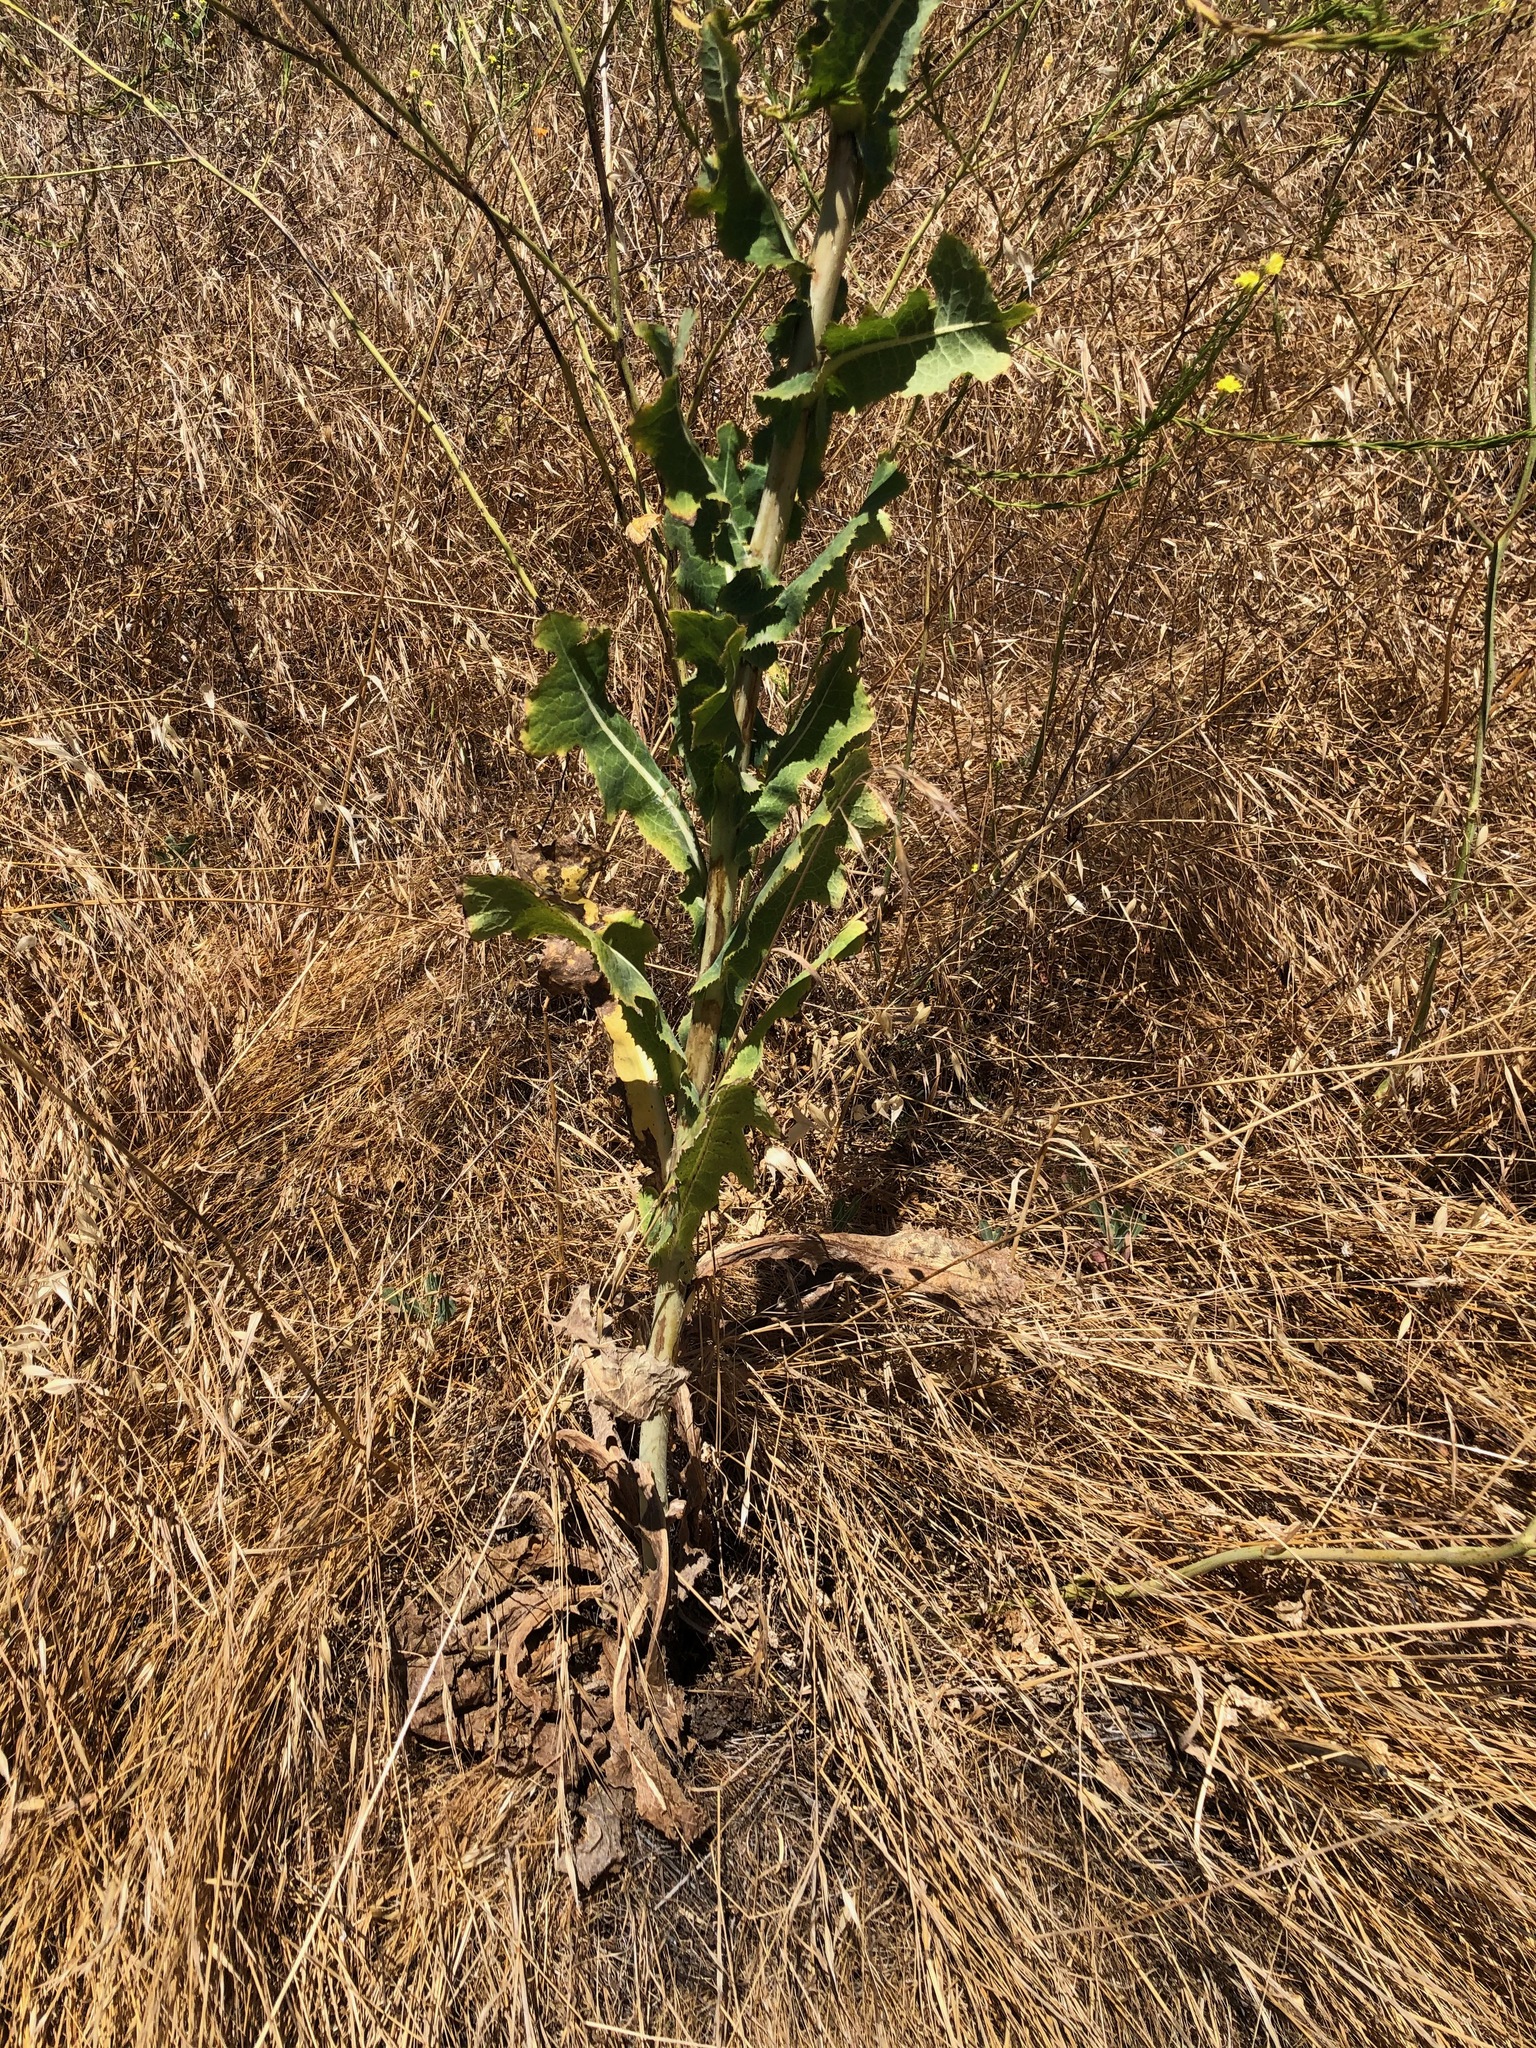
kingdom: Plantae
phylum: Tracheophyta
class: Magnoliopsida
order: Asterales
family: Asteraceae
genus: Lactuca
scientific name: Lactuca serriola
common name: Prickly lettuce
